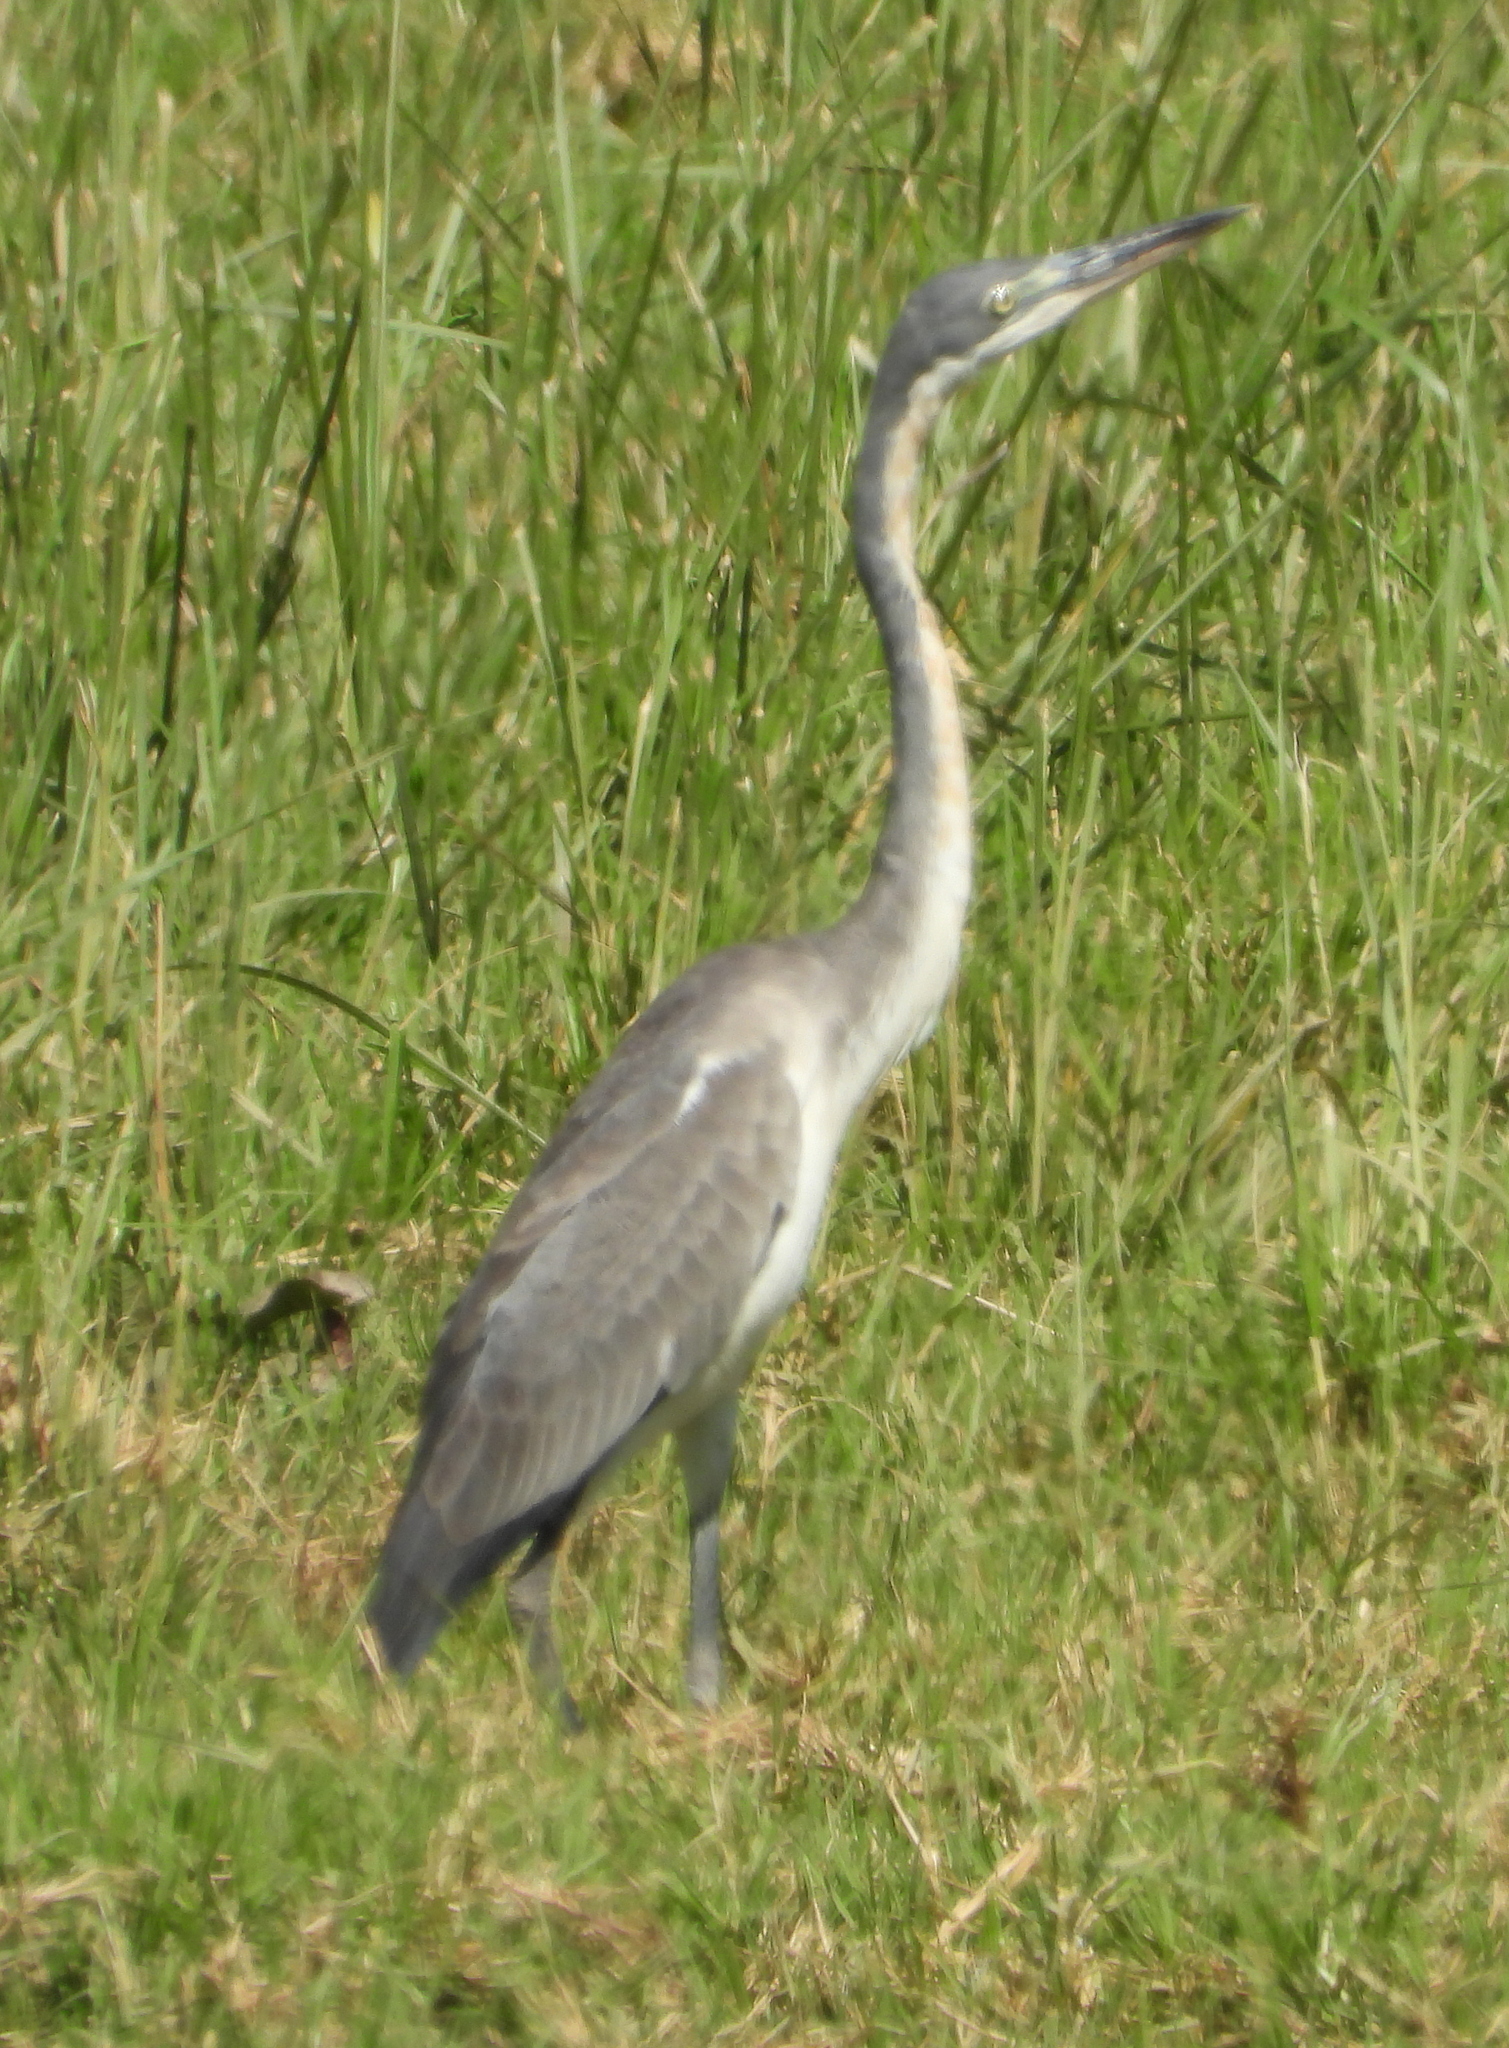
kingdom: Animalia
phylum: Chordata
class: Aves
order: Pelecaniformes
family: Ardeidae
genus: Ardea
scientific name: Ardea melanocephala
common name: Black-headed heron
